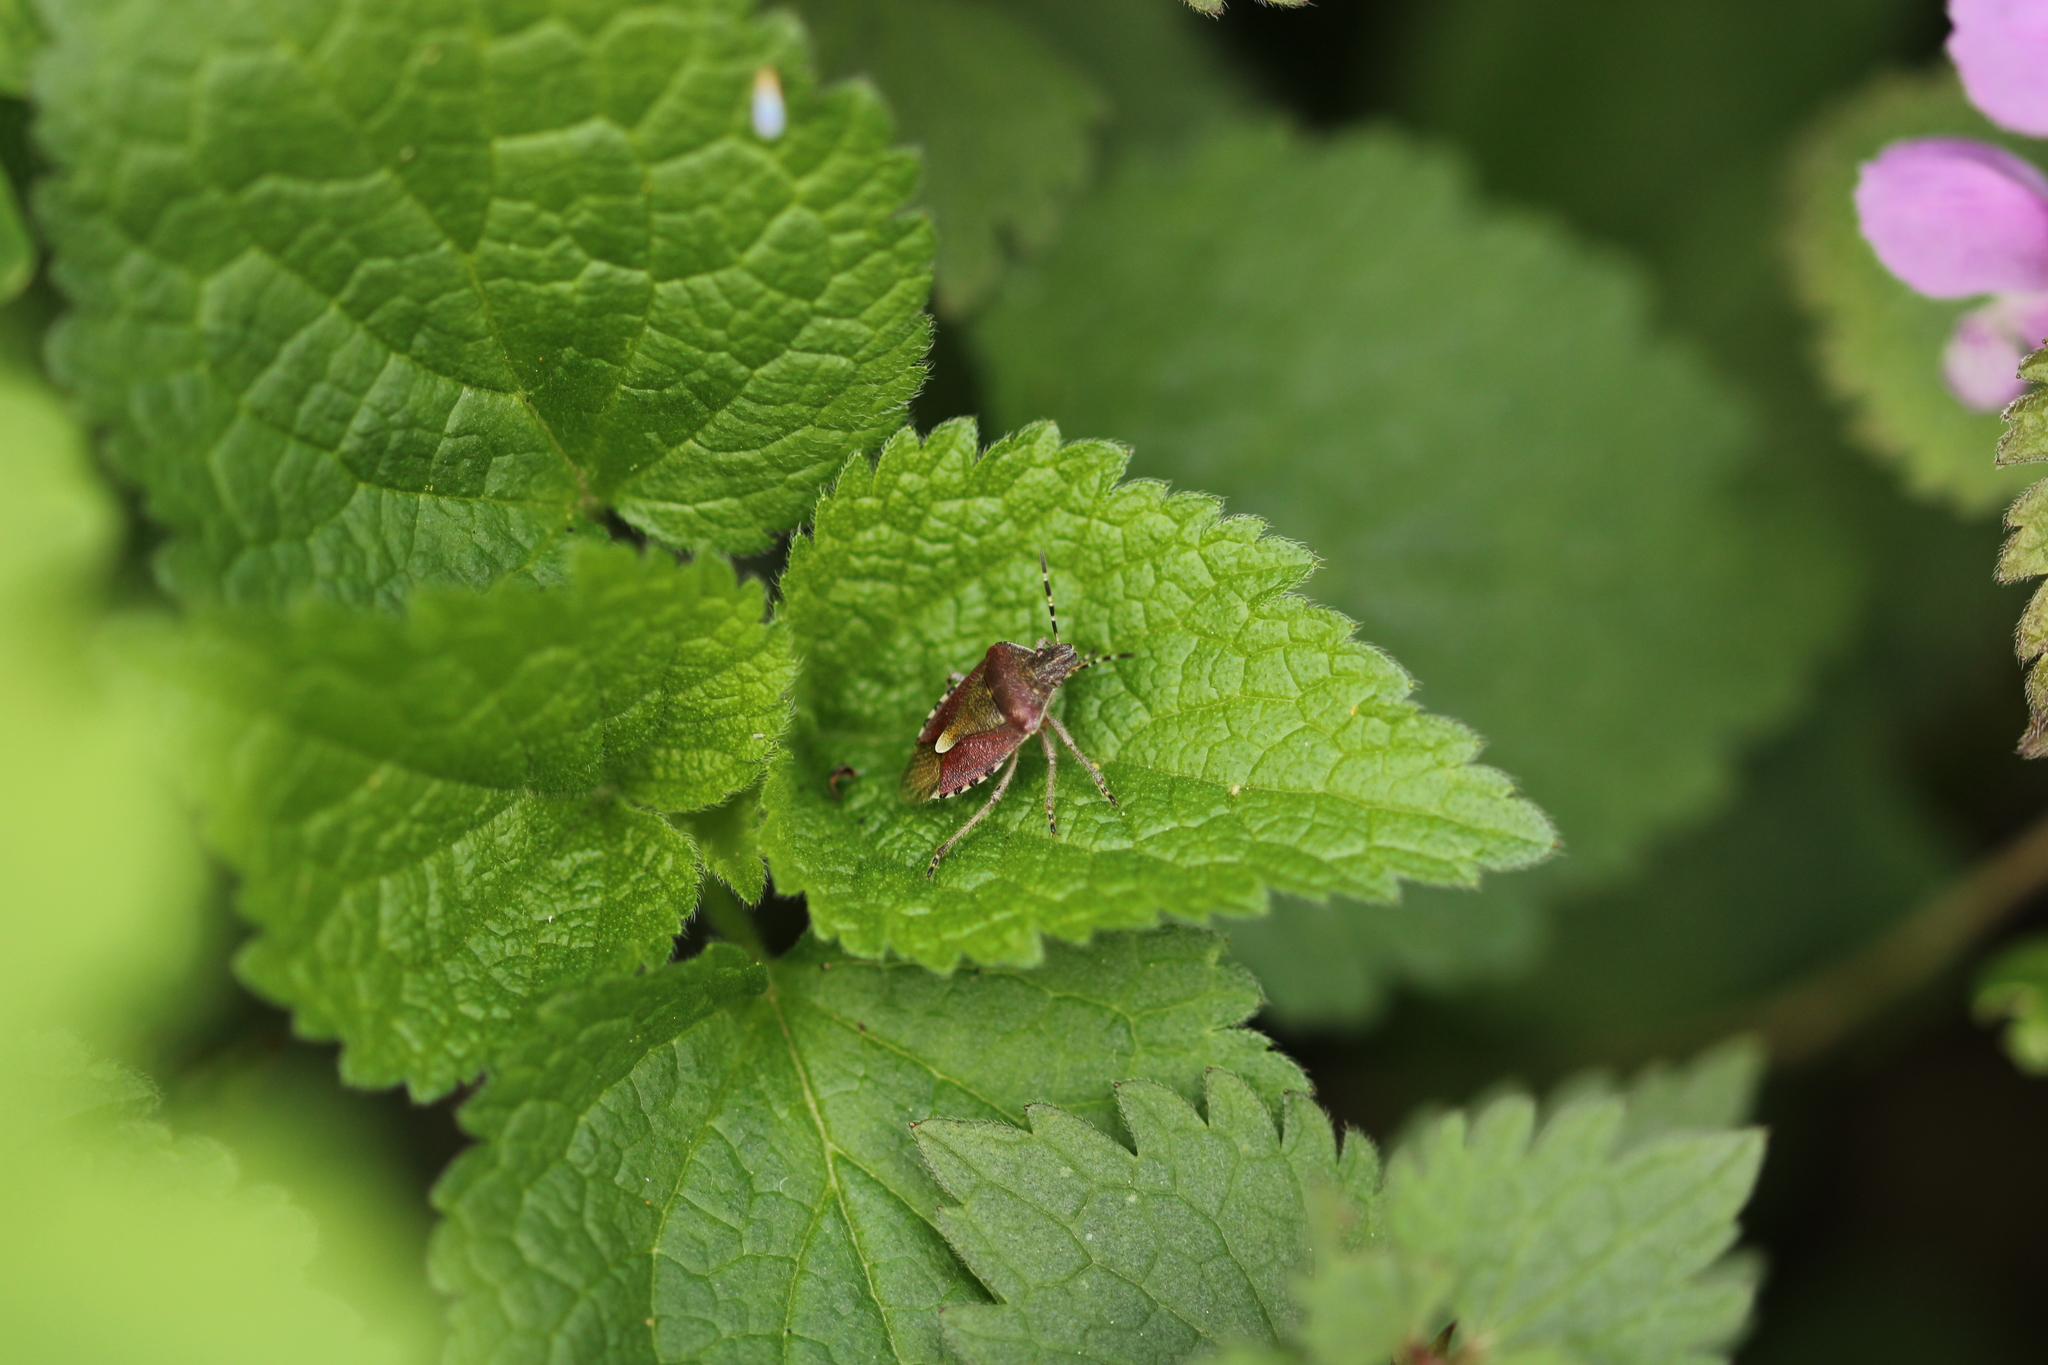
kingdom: Animalia
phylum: Arthropoda
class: Insecta
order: Hemiptera
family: Pentatomidae
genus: Dolycoris
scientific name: Dolycoris baccarum
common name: Sloe bug
